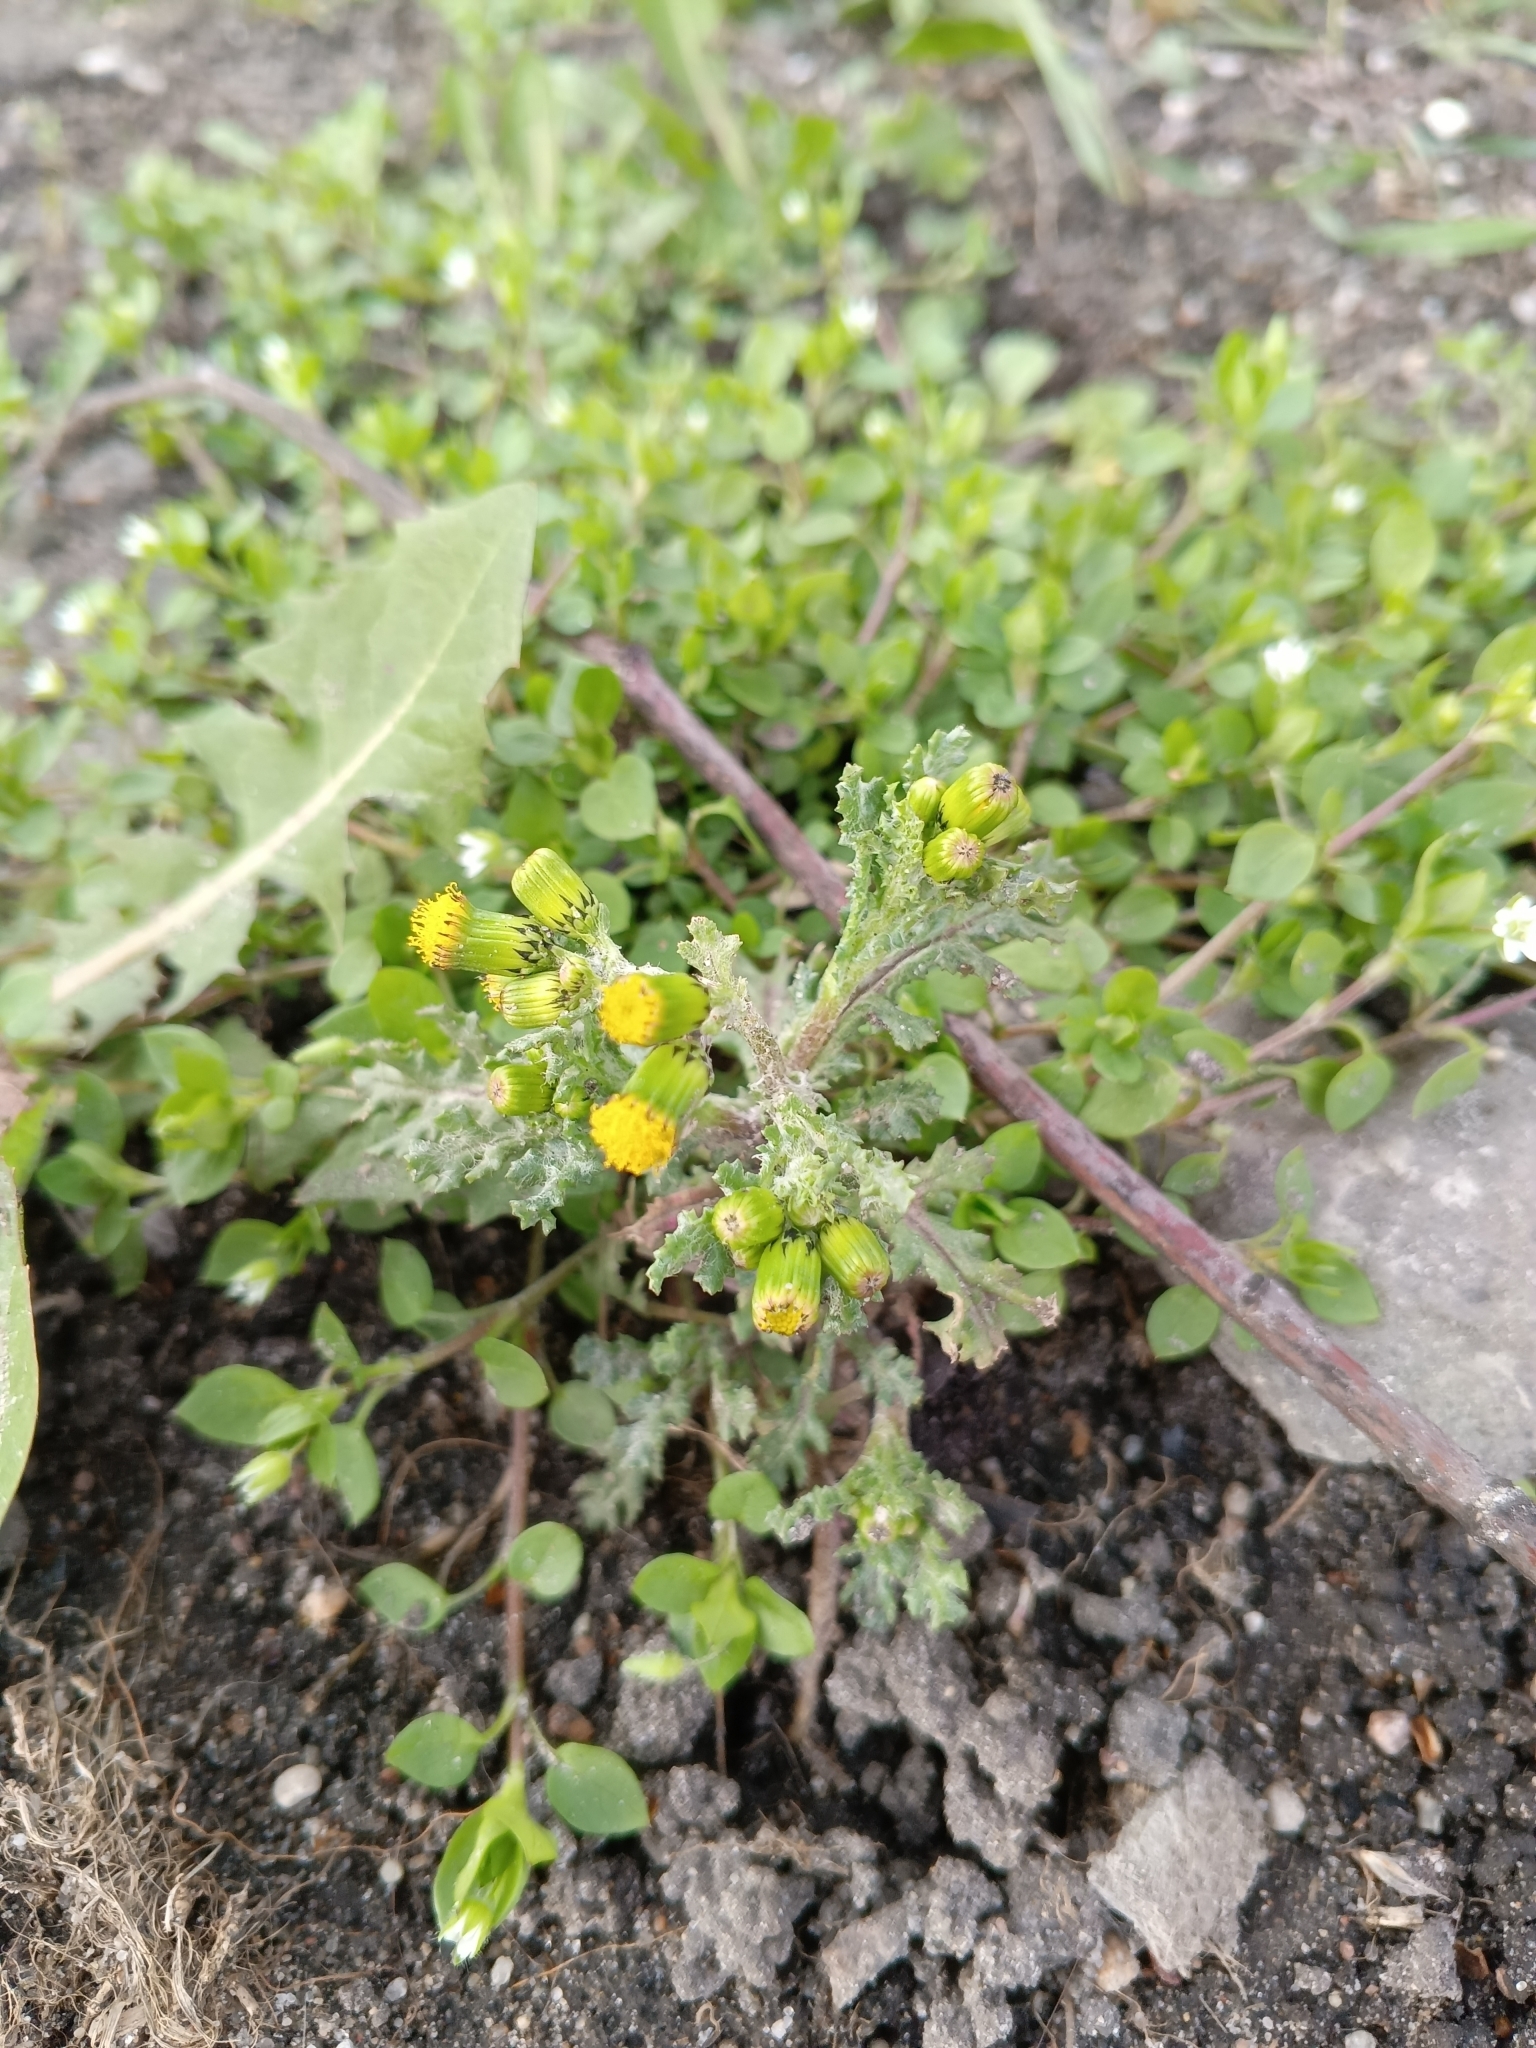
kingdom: Plantae
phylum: Tracheophyta
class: Magnoliopsida
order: Asterales
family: Asteraceae
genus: Senecio
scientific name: Senecio vulgaris
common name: Old-man-in-the-spring
